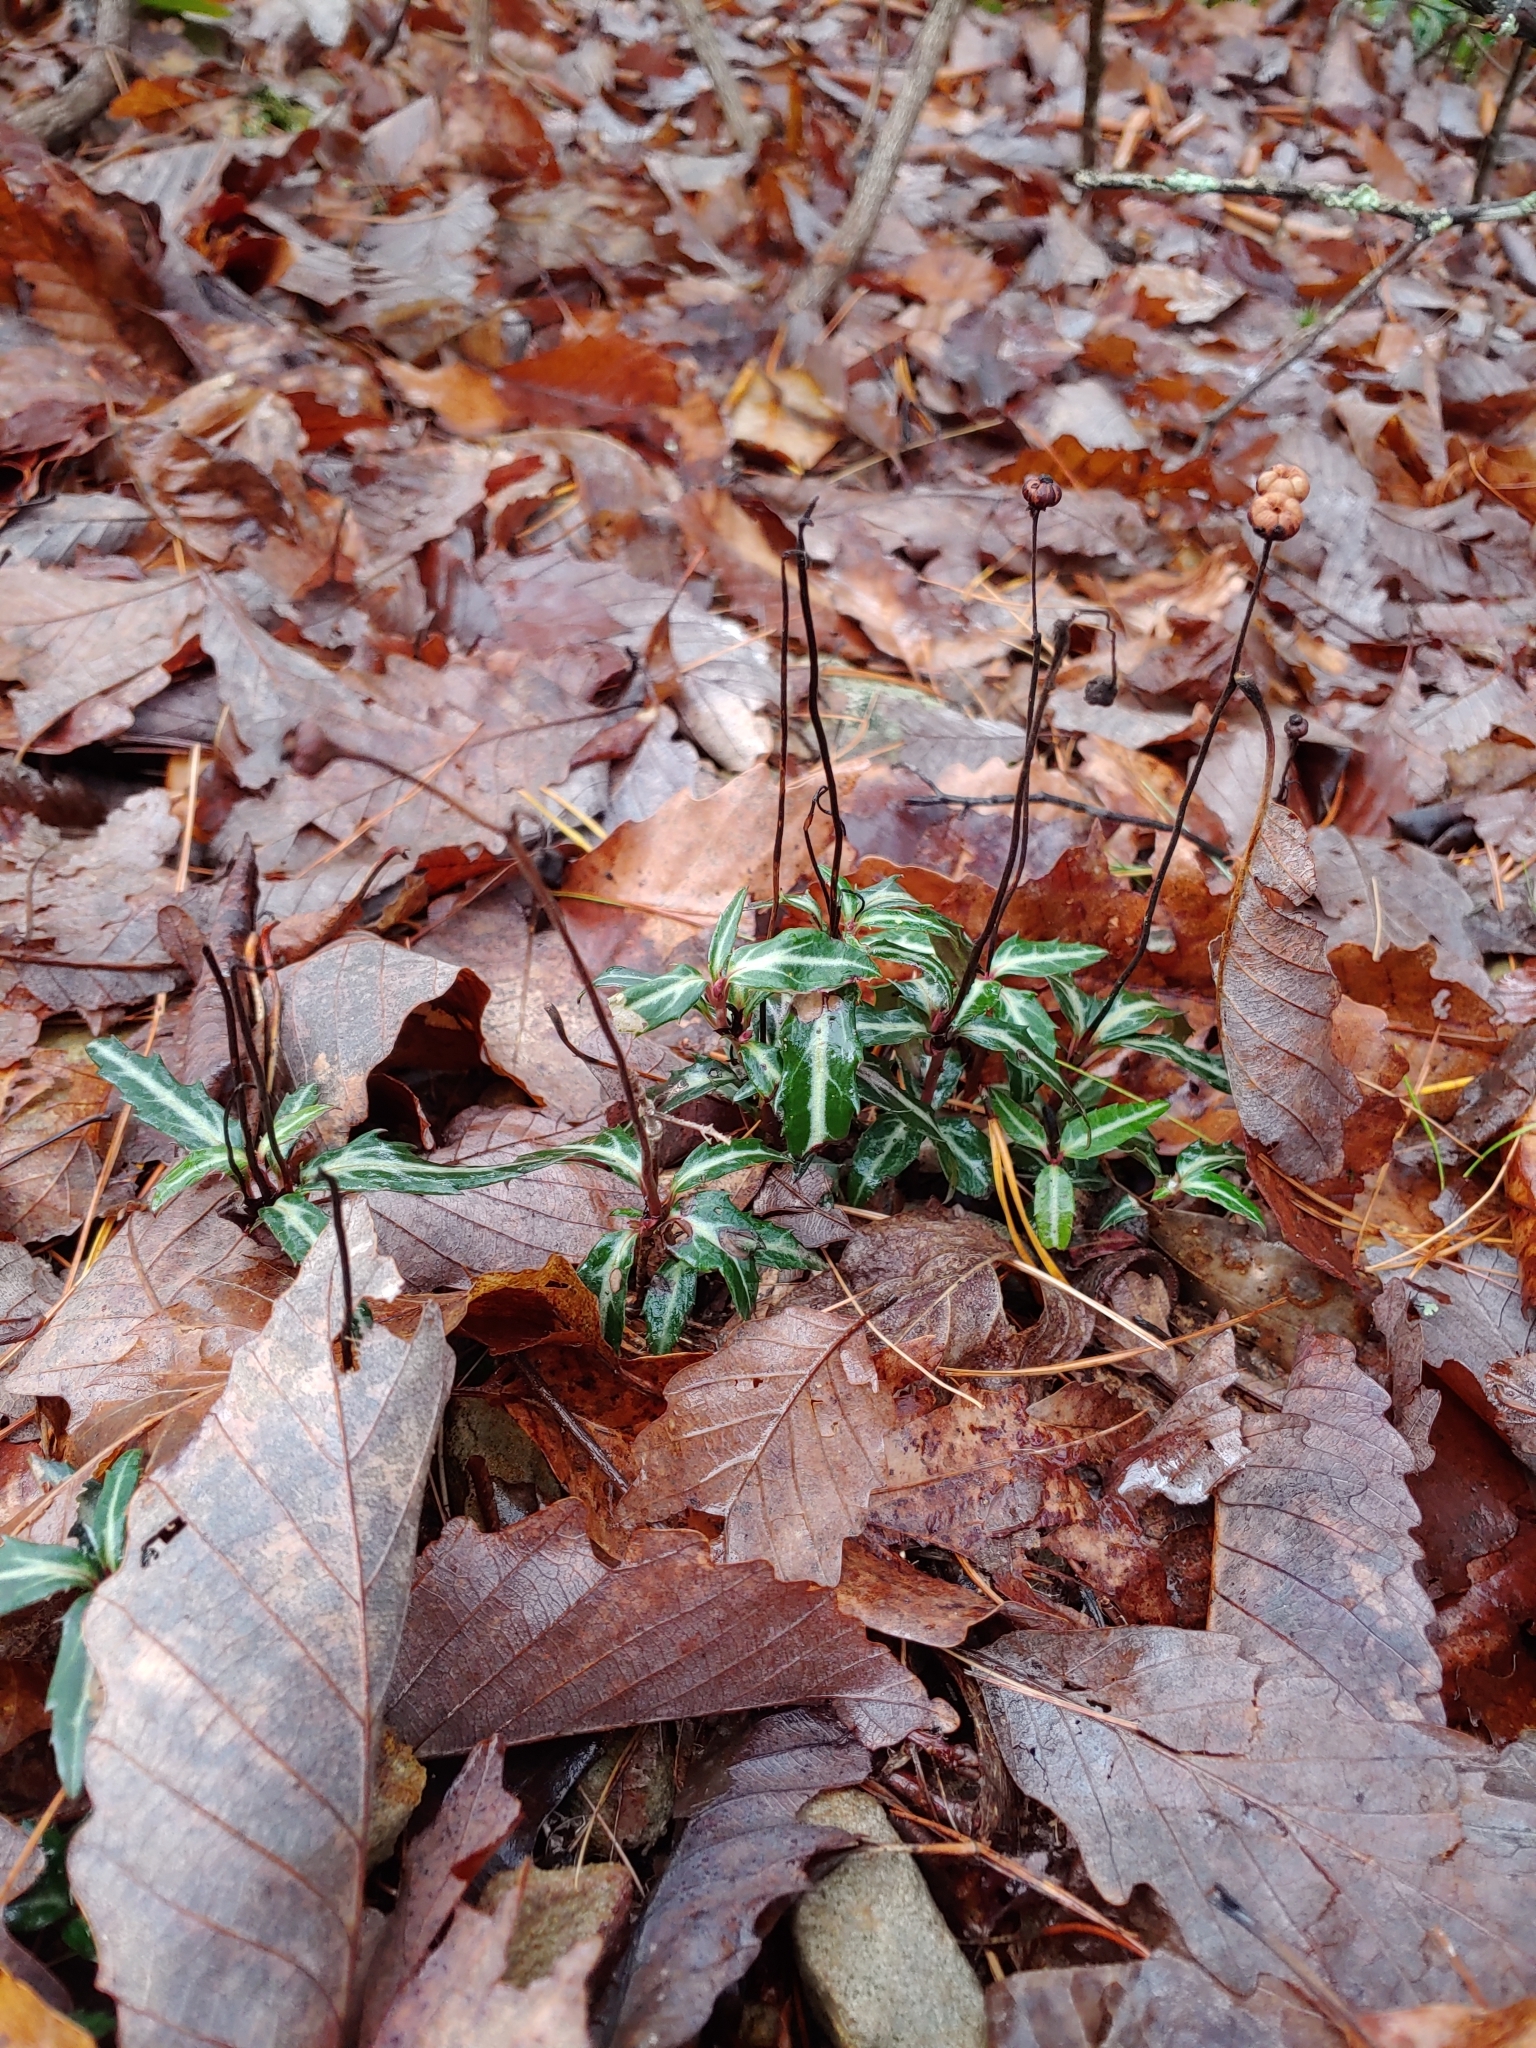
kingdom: Plantae
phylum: Tracheophyta
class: Magnoliopsida
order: Ericales
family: Ericaceae
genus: Chimaphila
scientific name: Chimaphila maculata
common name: Spotted pipsissewa
